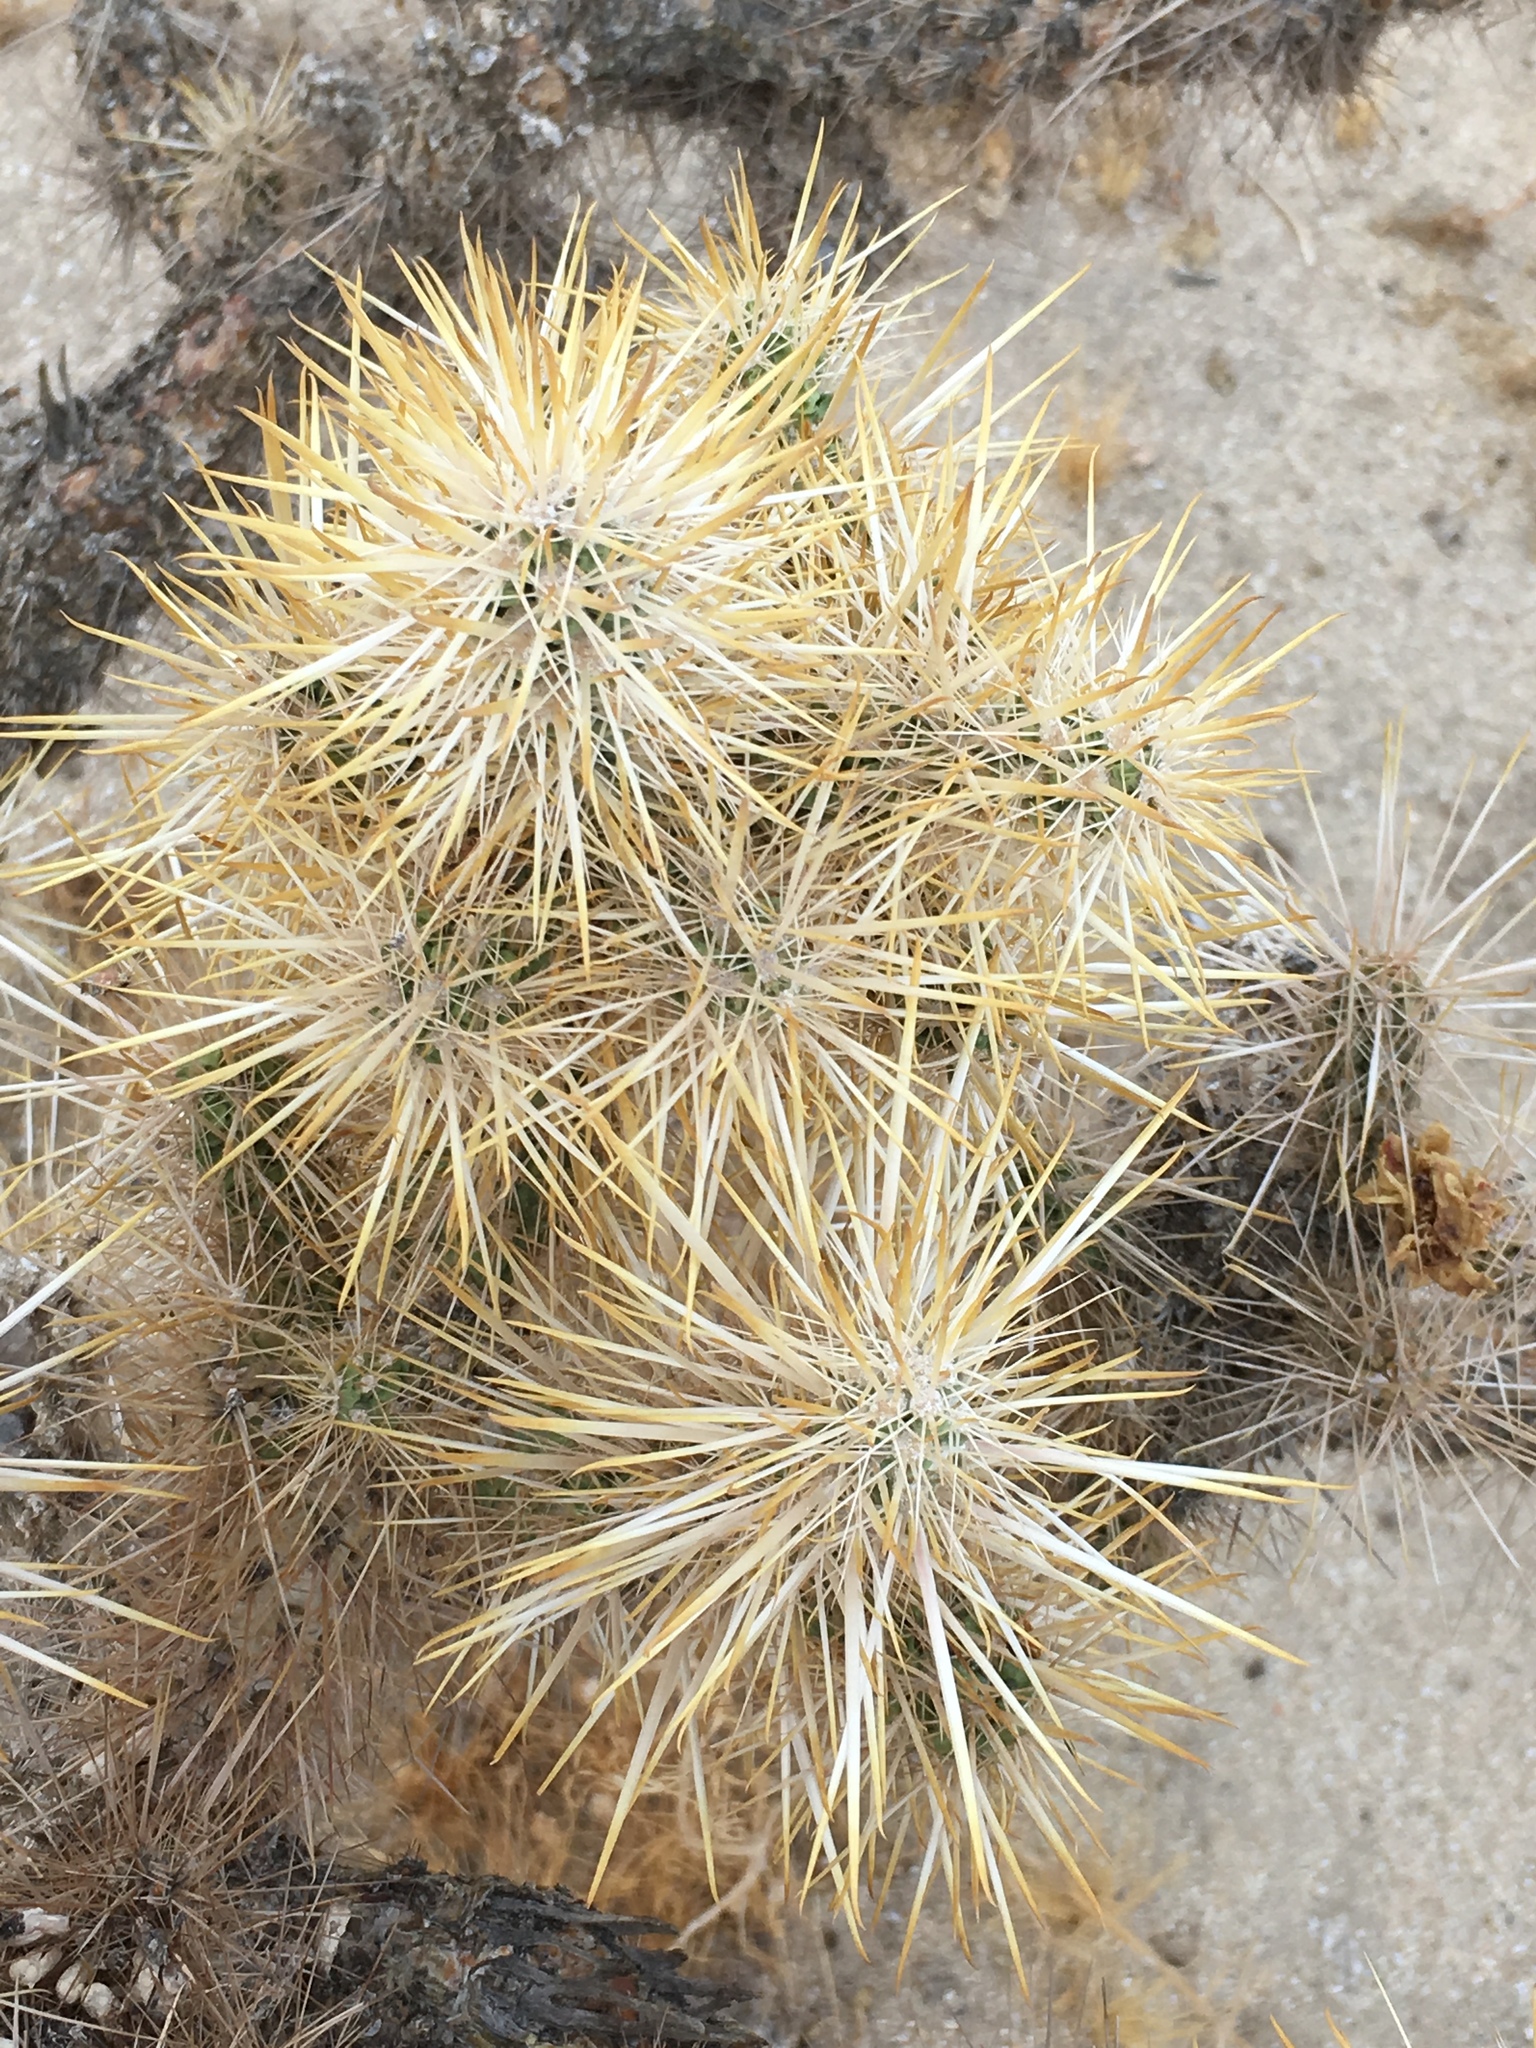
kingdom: Plantae
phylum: Tracheophyta
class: Magnoliopsida
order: Caryophyllales
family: Cactaceae
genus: Cylindropuntia
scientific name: Cylindropuntia echinocarpa
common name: Ground cholla
